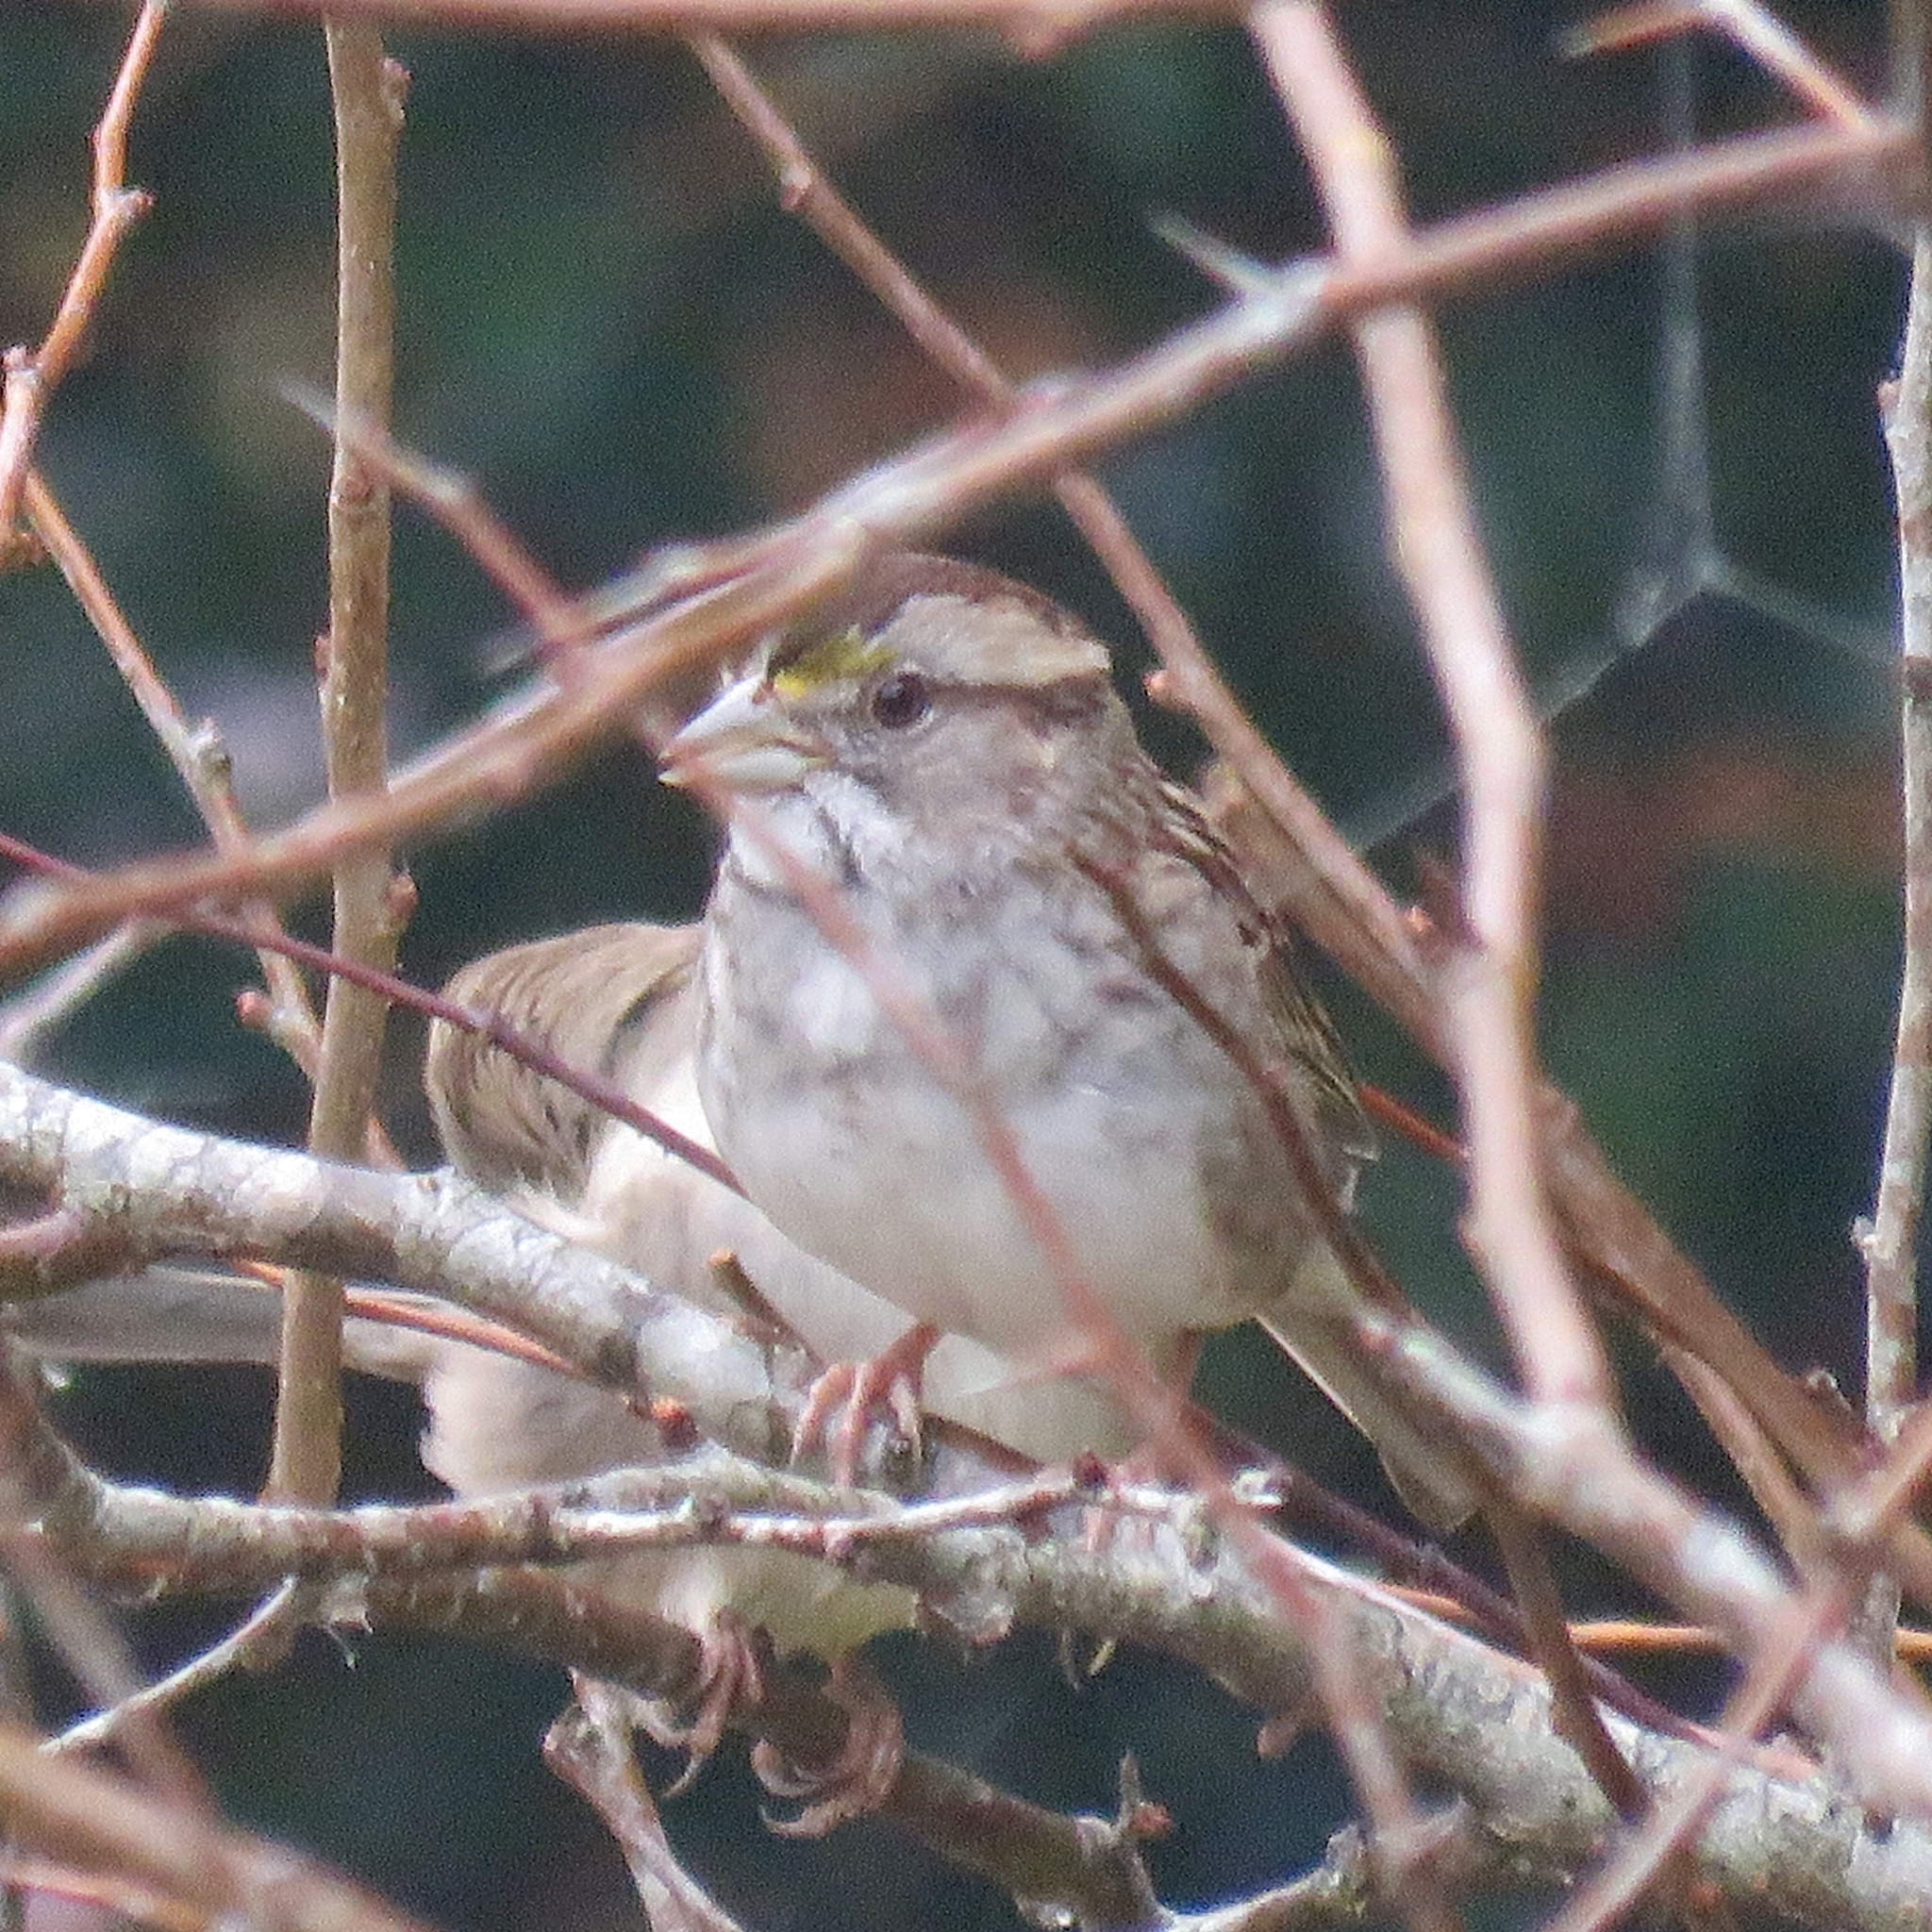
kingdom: Animalia
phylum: Chordata
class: Aves
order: Passeriformes
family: Passerellidae
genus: Zonotrichia
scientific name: Zonotrichia albicollis
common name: White-throated sparrow
